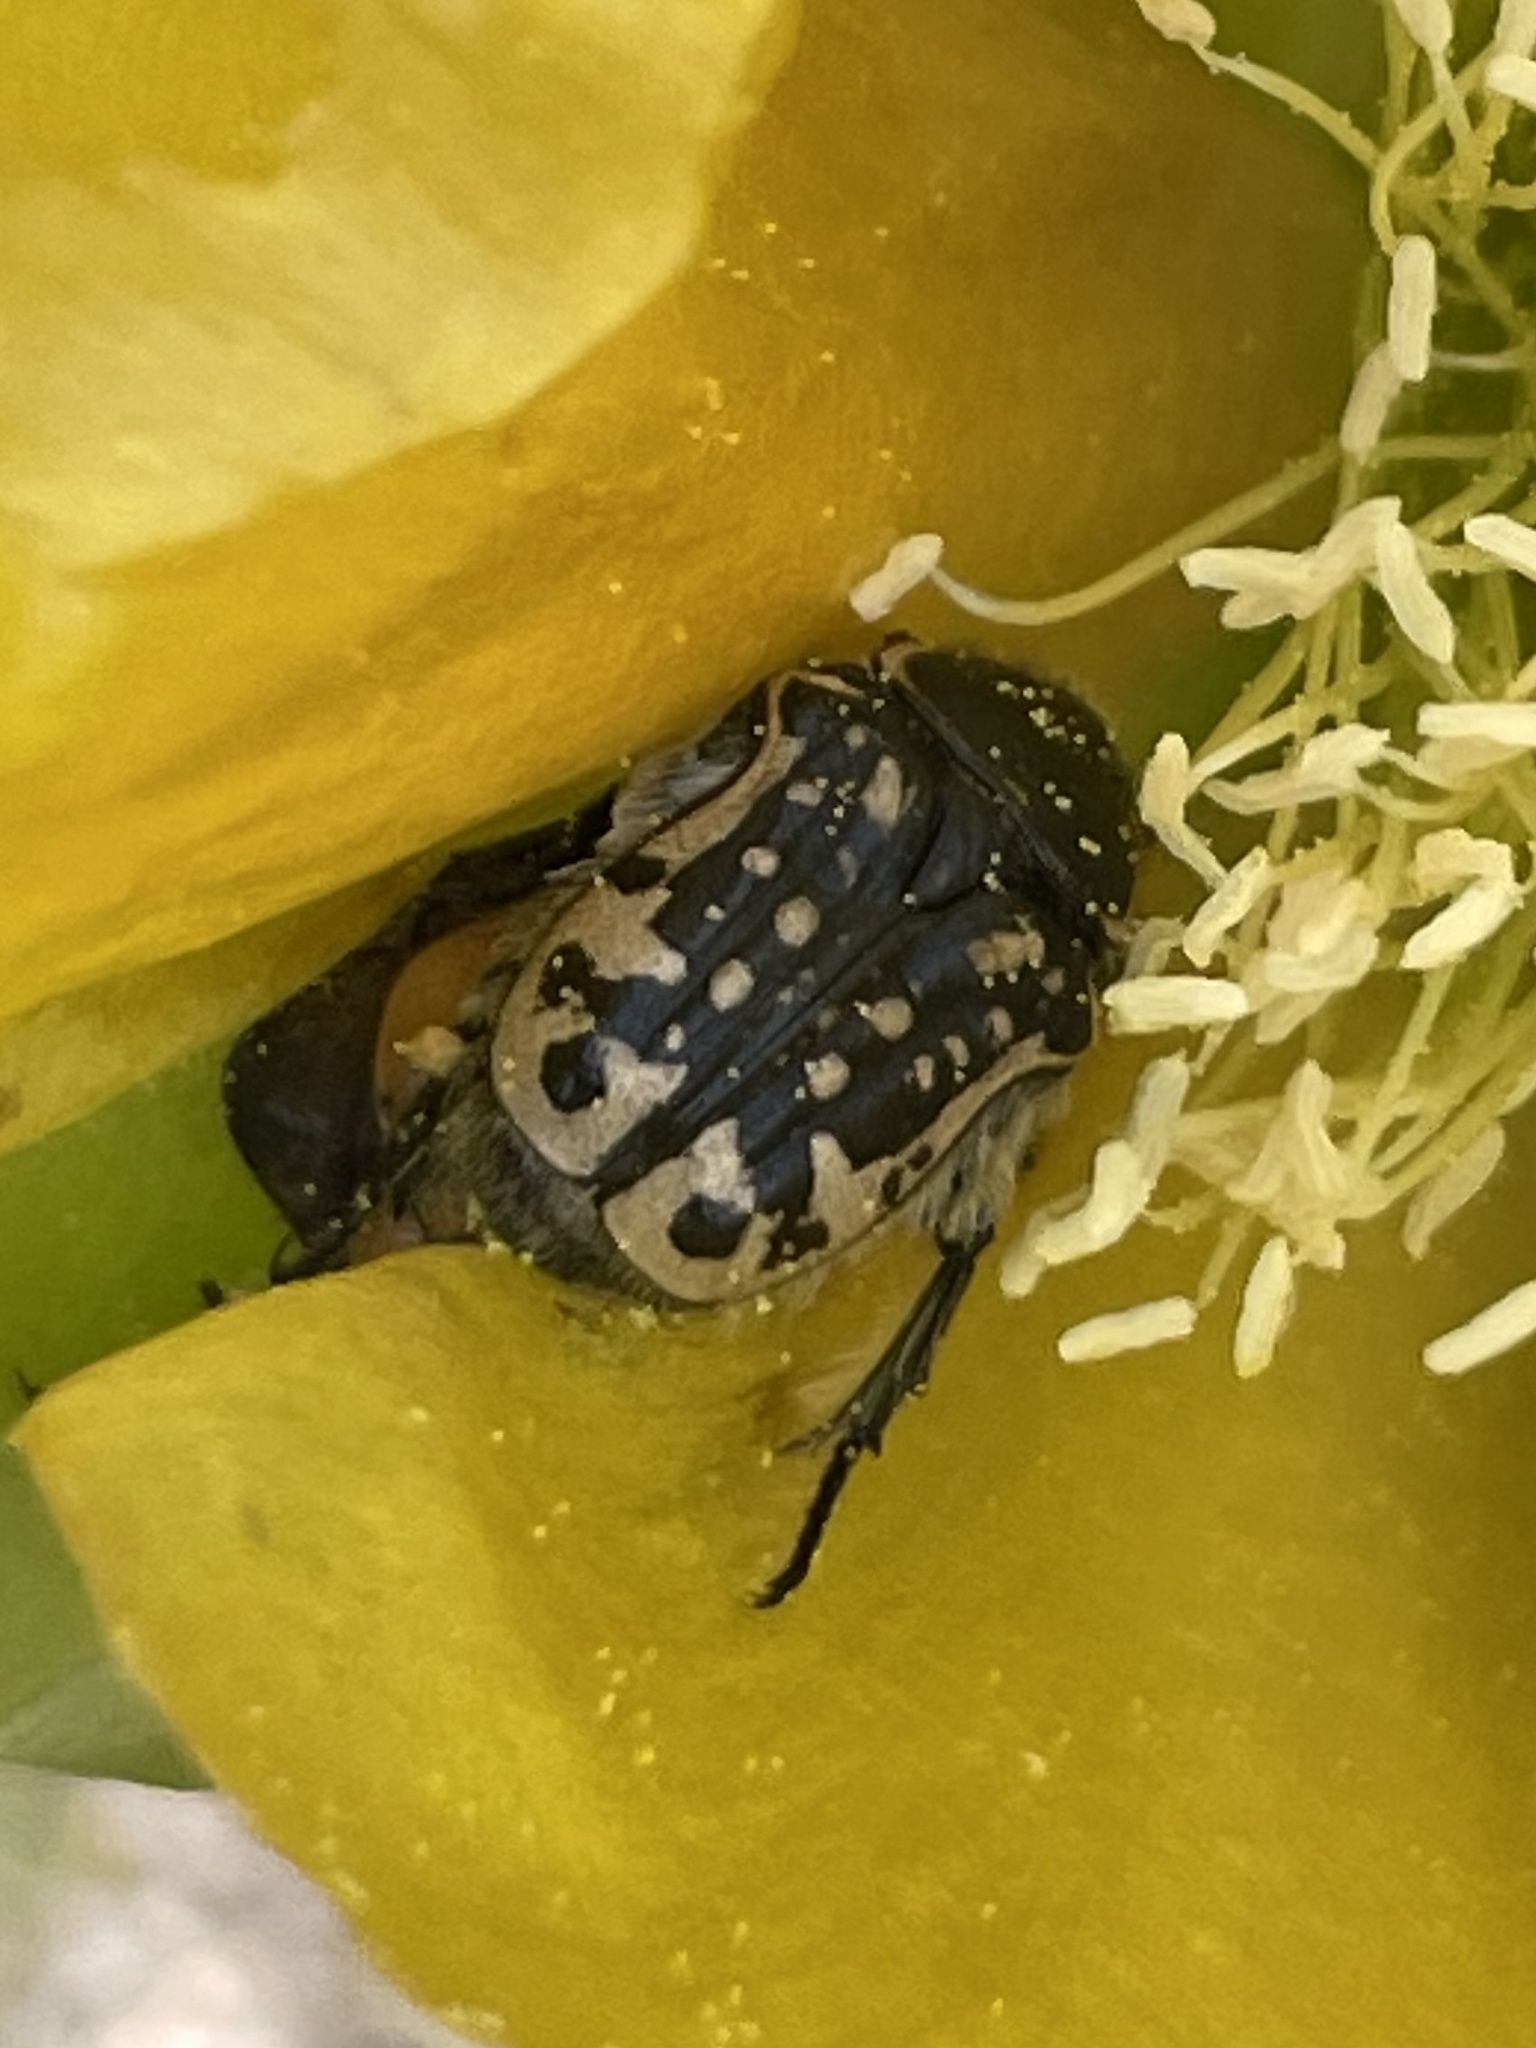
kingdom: Animalia
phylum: Arthropoda
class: Insecta
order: Coleoptera
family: Scarabaeidae
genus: Euphoria
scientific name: Euphoria kernii
